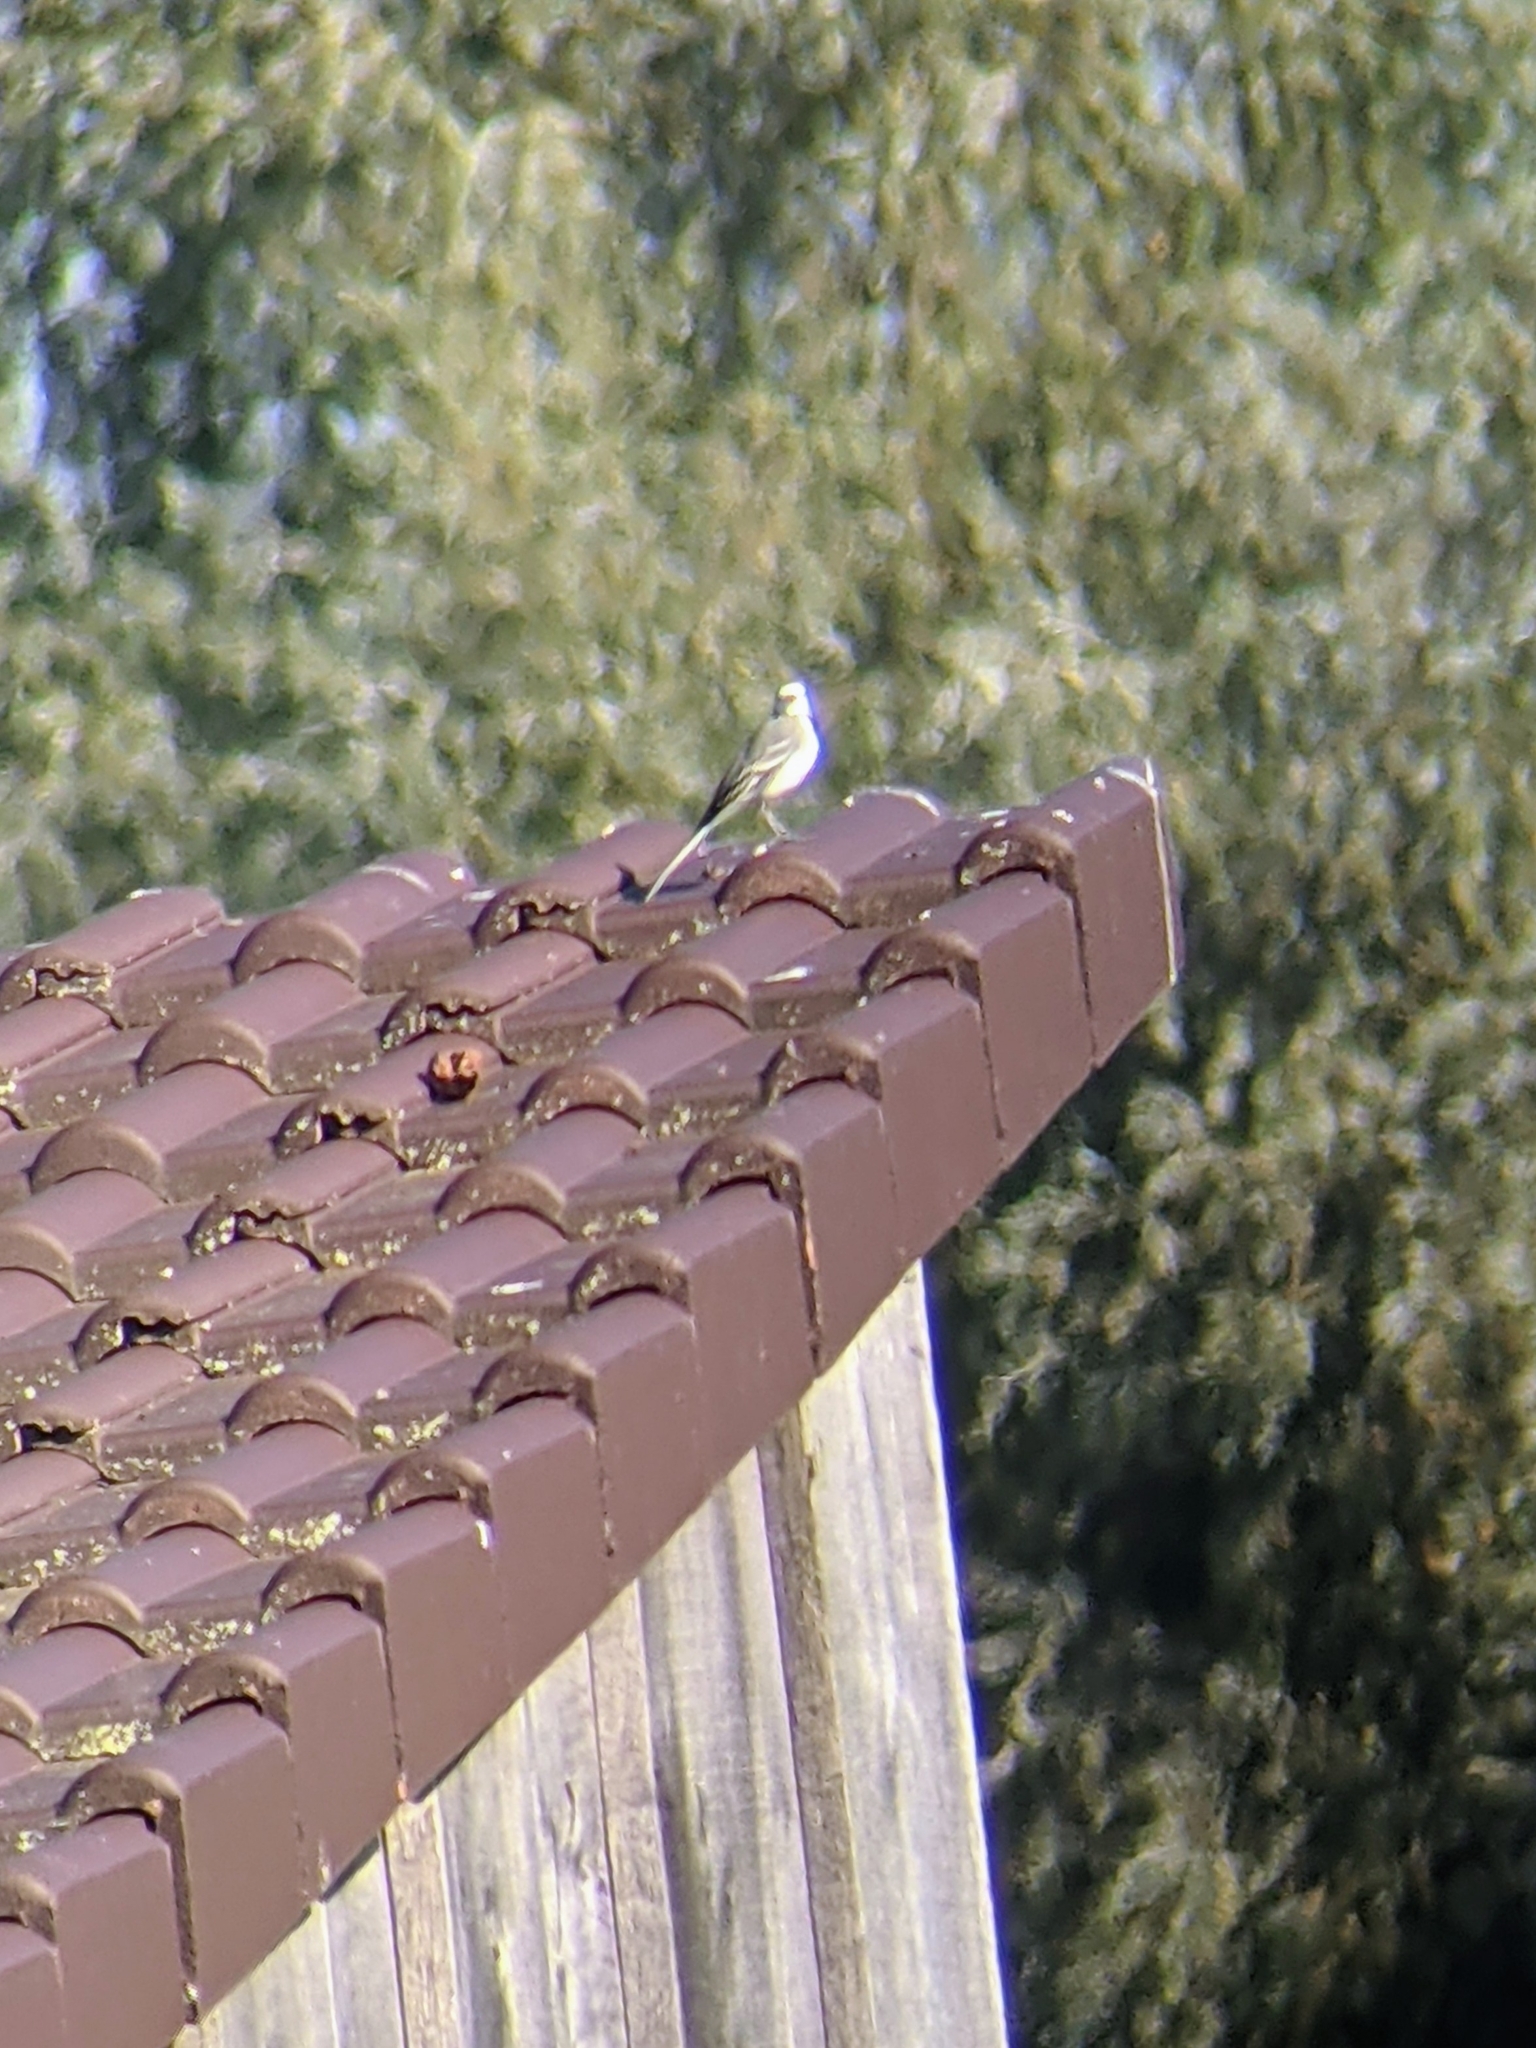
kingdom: Animalia
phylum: Chordata
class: Aves
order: Passeriformes
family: Motacillidae
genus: Motacilla
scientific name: Motacilla alba
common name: White wagtail
